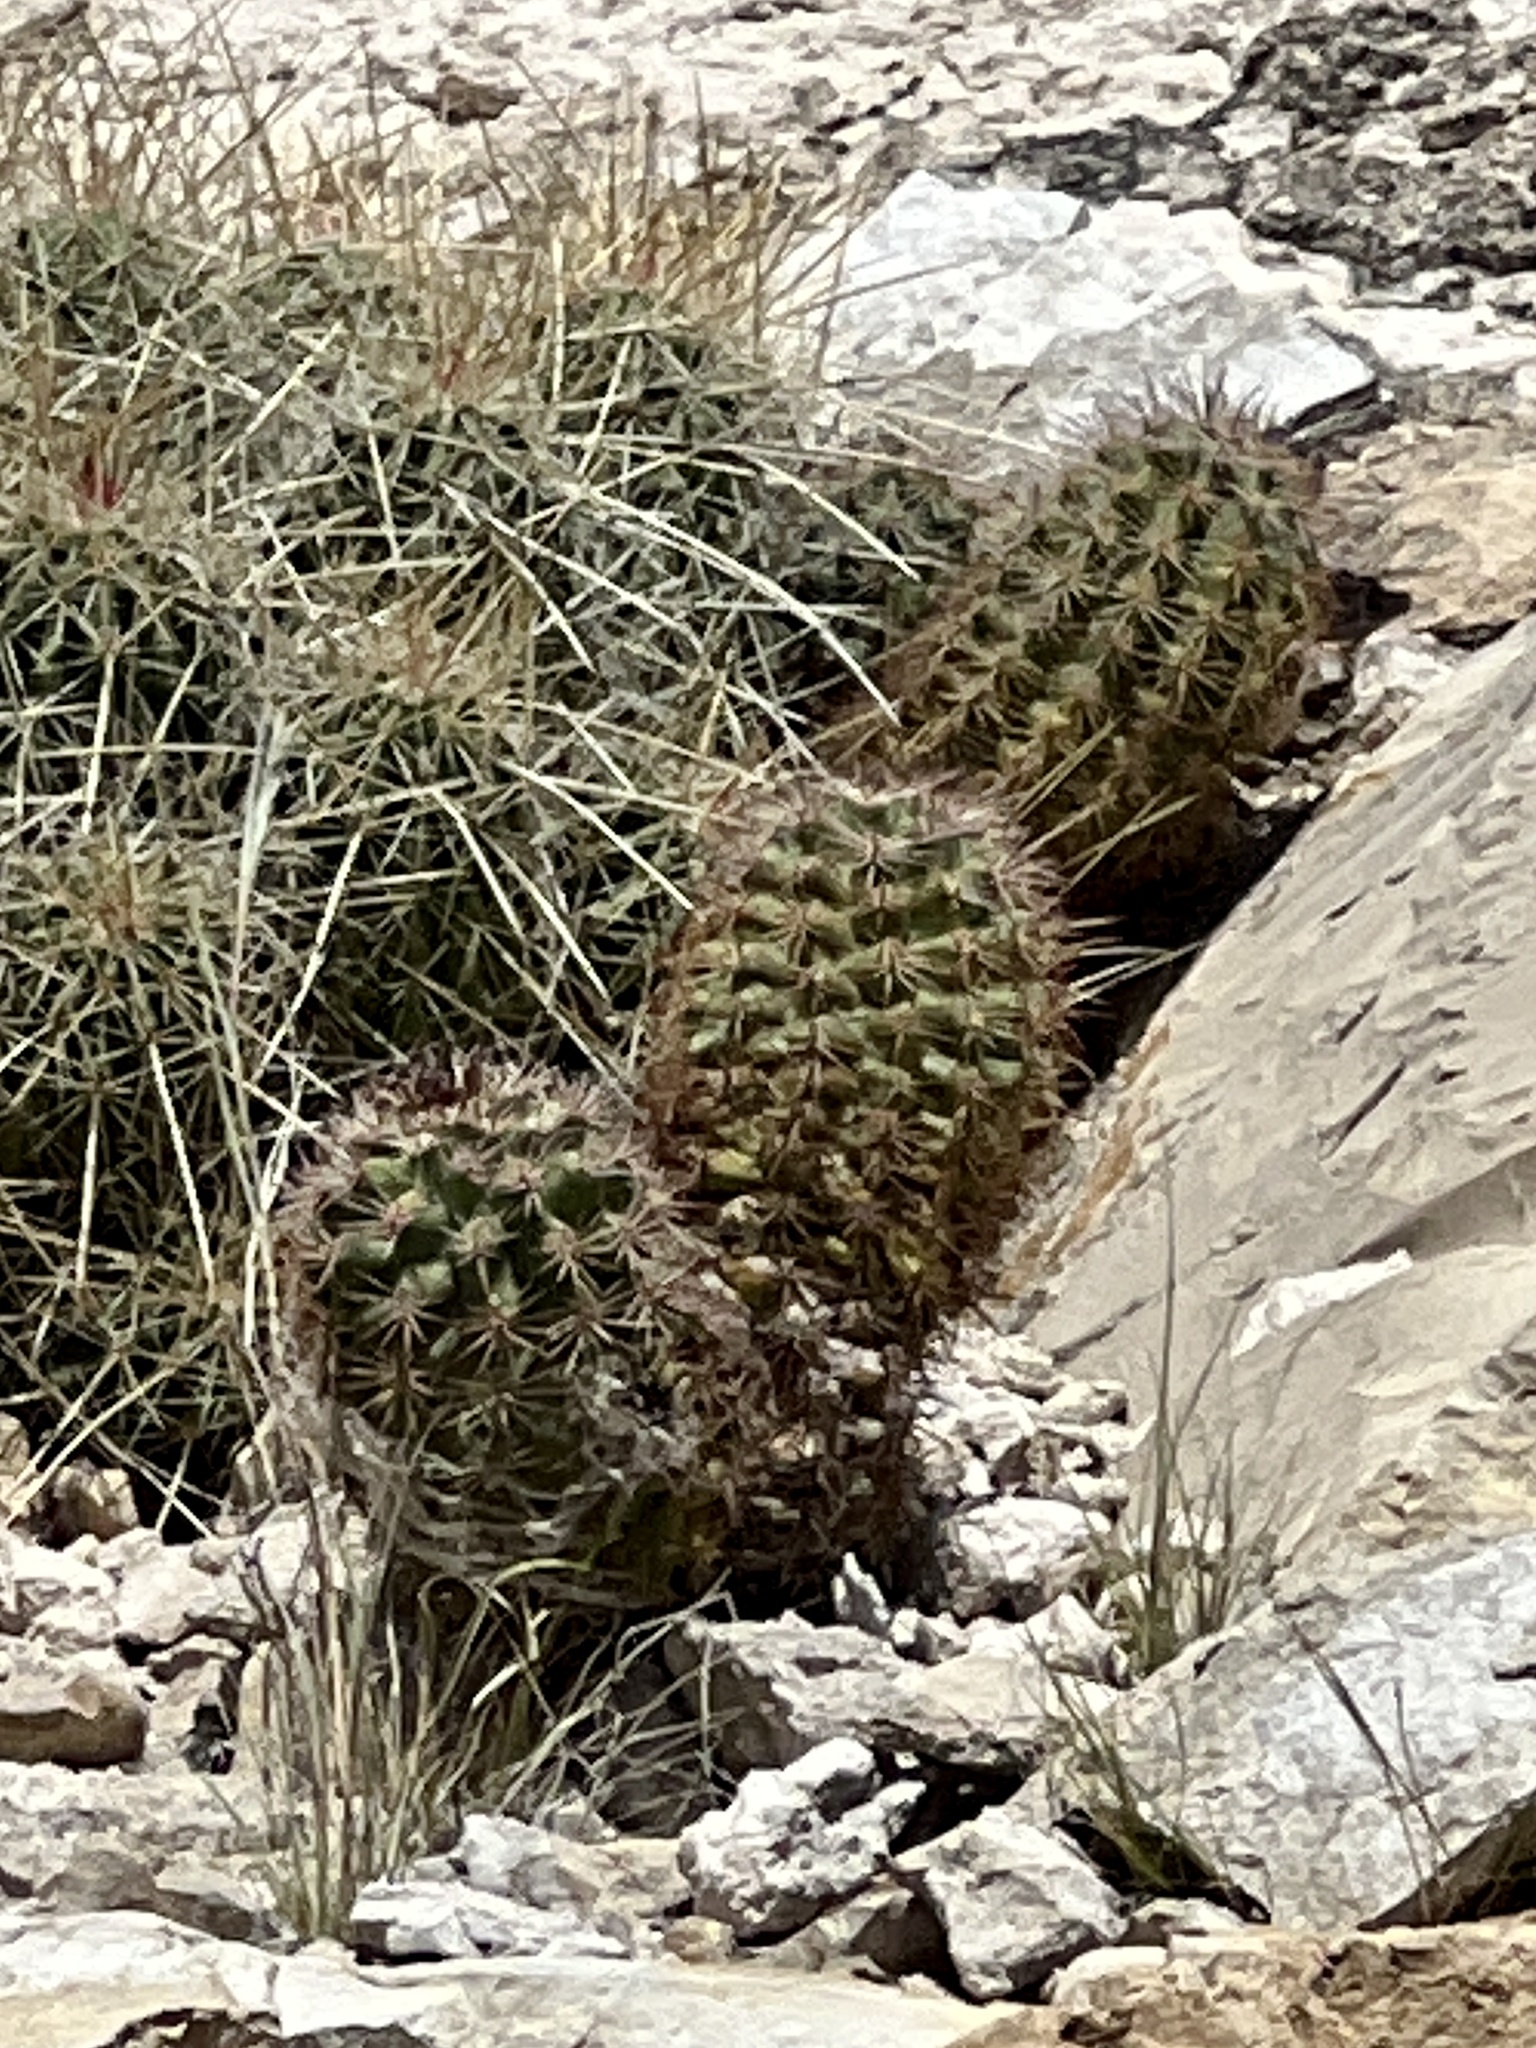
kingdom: Plantae
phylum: Tracheophyta
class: Magnoliopsida
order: Caryophyllales
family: Cactaceae
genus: Echinocereus
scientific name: Echinocereus roetteri
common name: Lloyd's hedgehog cactus
